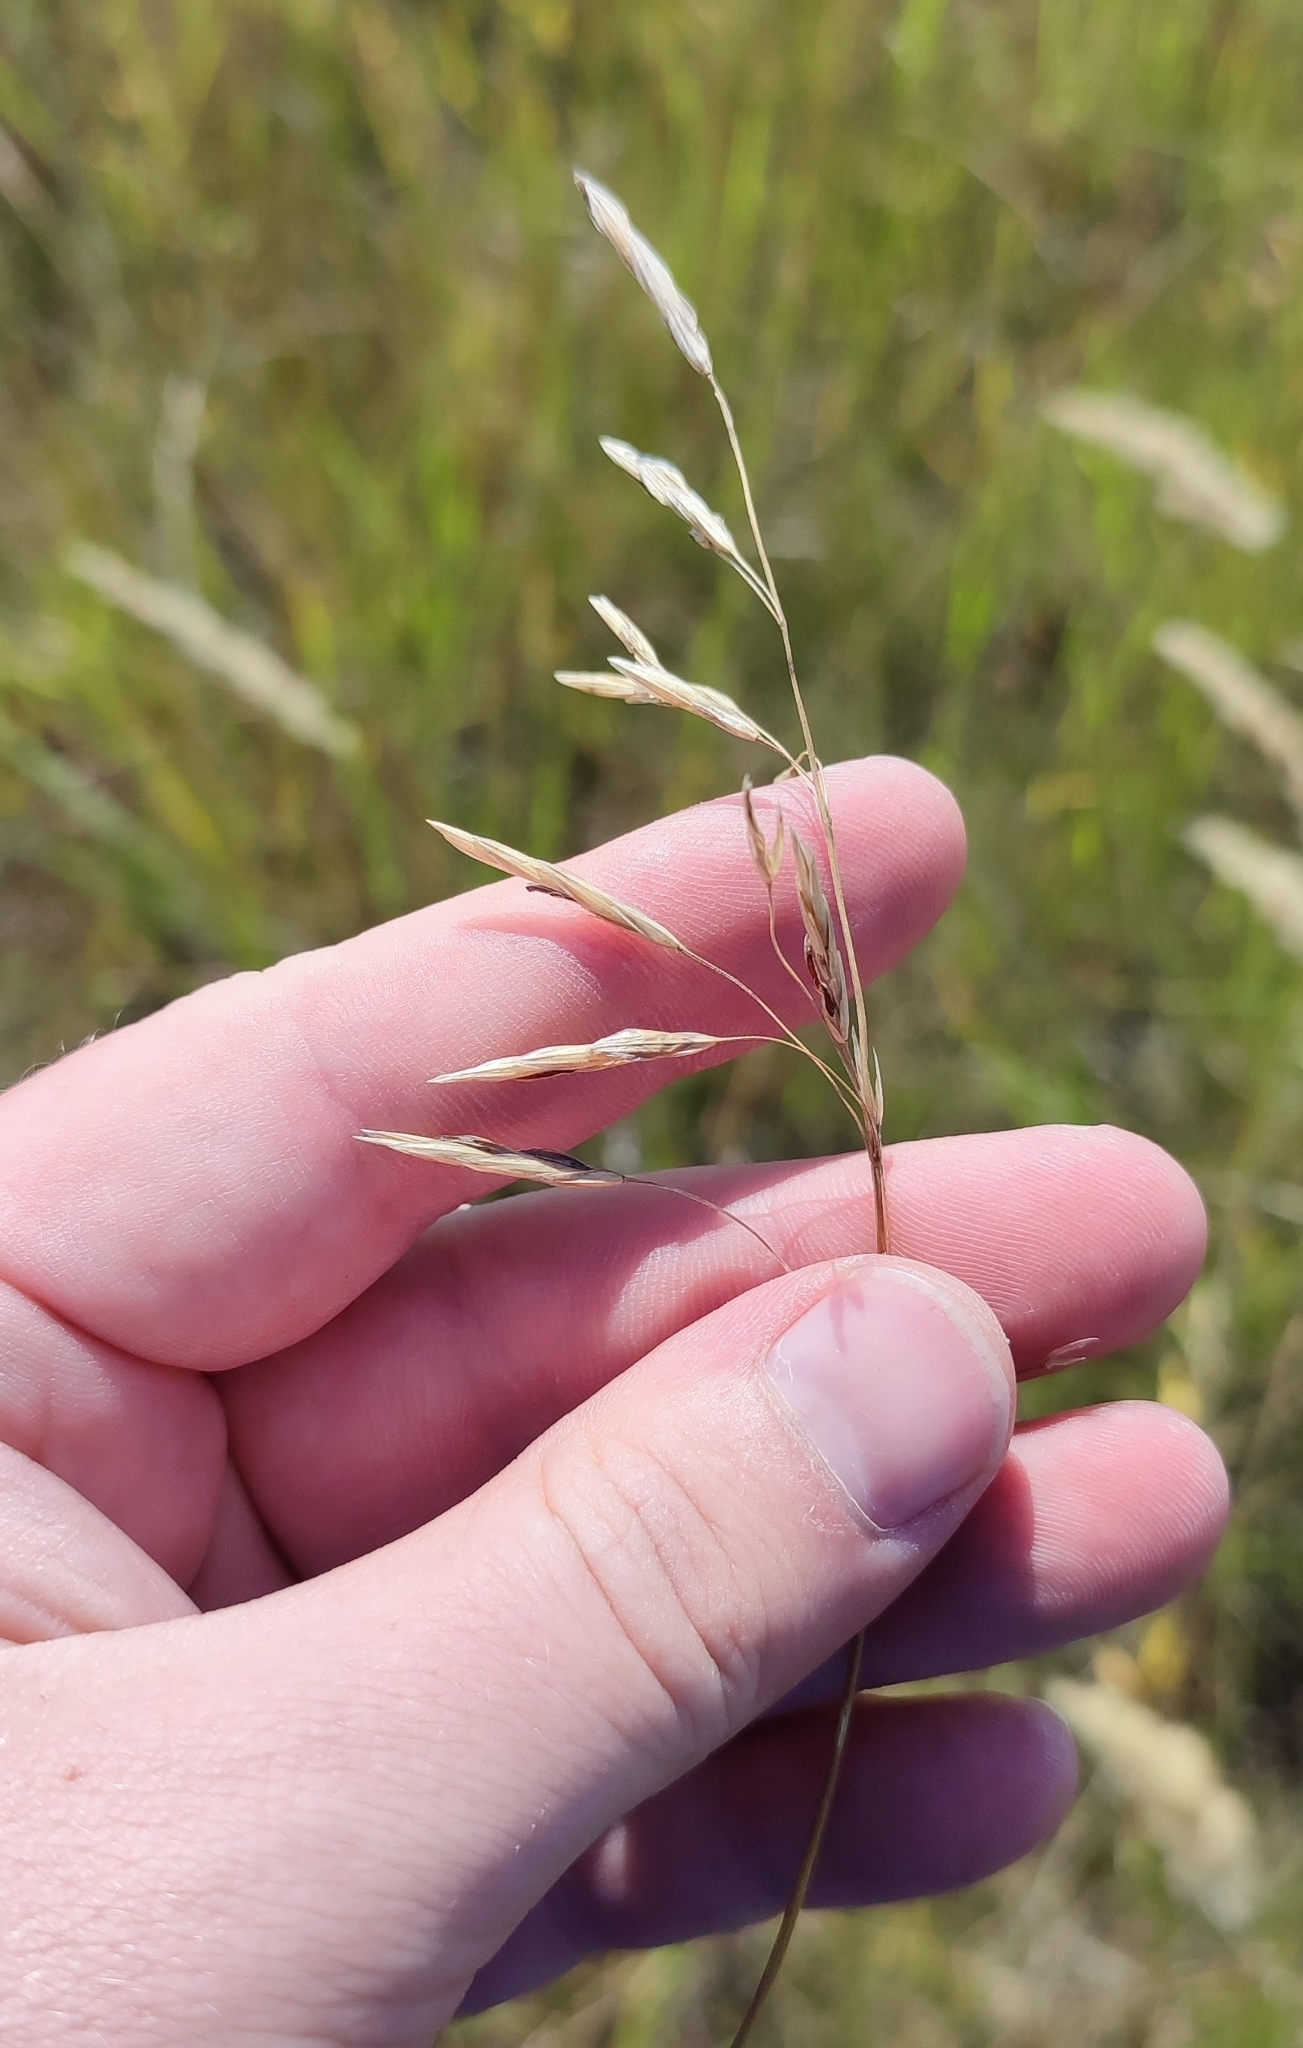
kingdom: Plantae
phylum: Tracheophyta
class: Liliopsida
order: Poales
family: Poaceae
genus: Bromus
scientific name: Bromus inermis
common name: Smooth brome
